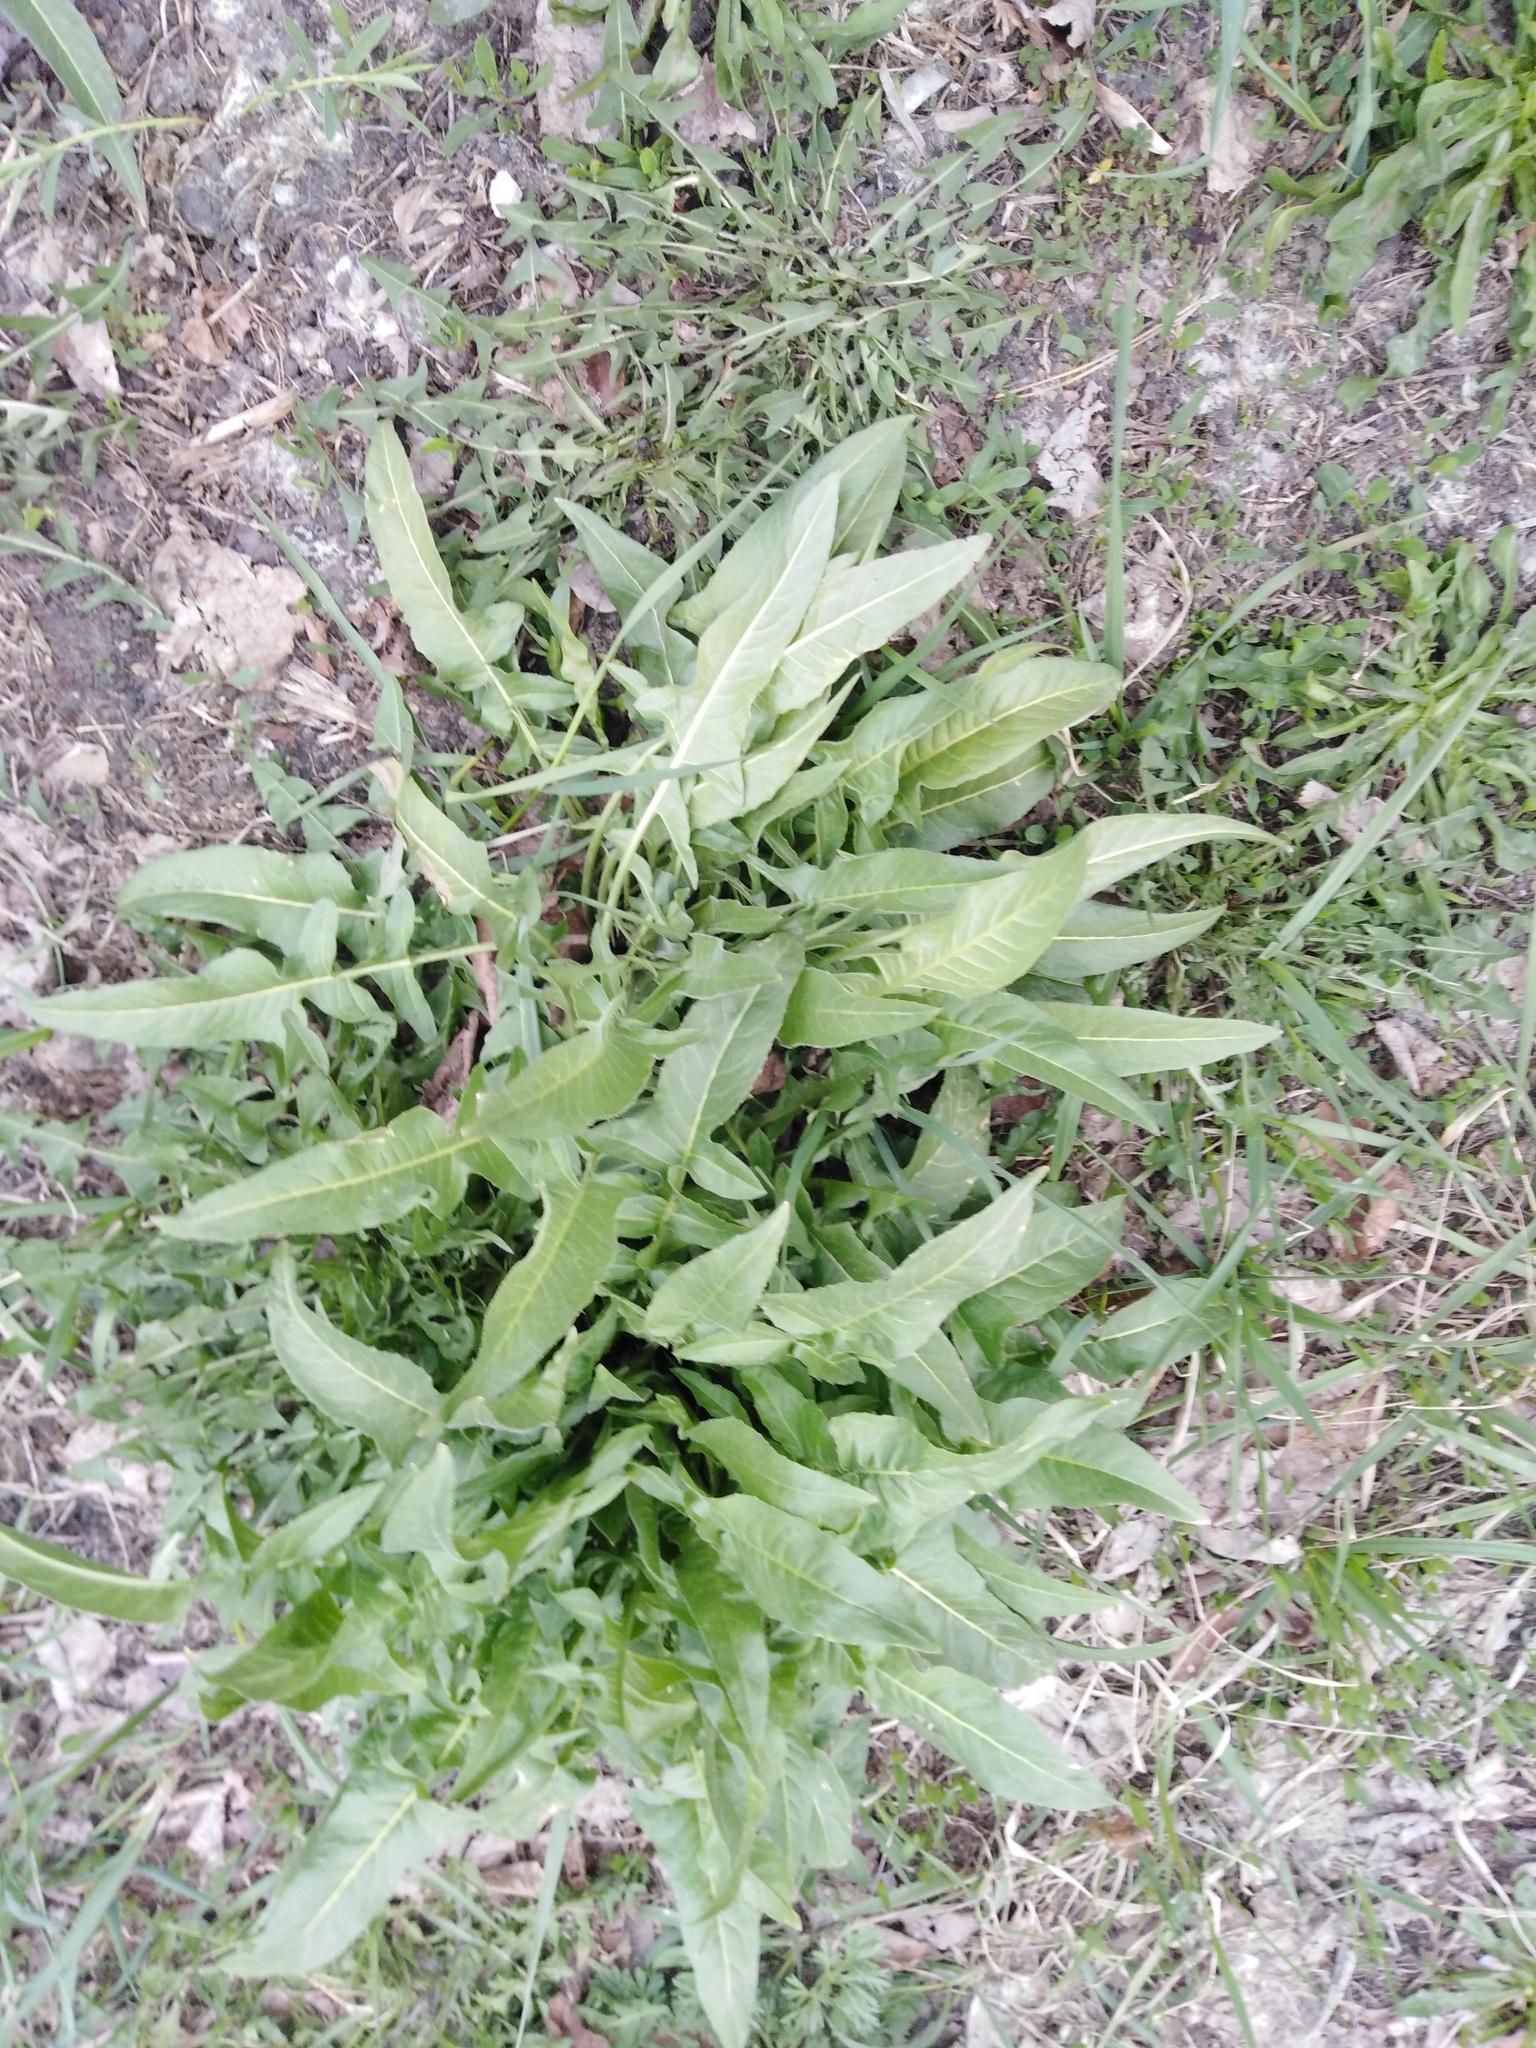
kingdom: Plantae
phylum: Tracheophyta
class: Magnoliopsida
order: Brassicales
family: Brassicaceae
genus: Bunias
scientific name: Bunias orientalis
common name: Warty-cabbage
